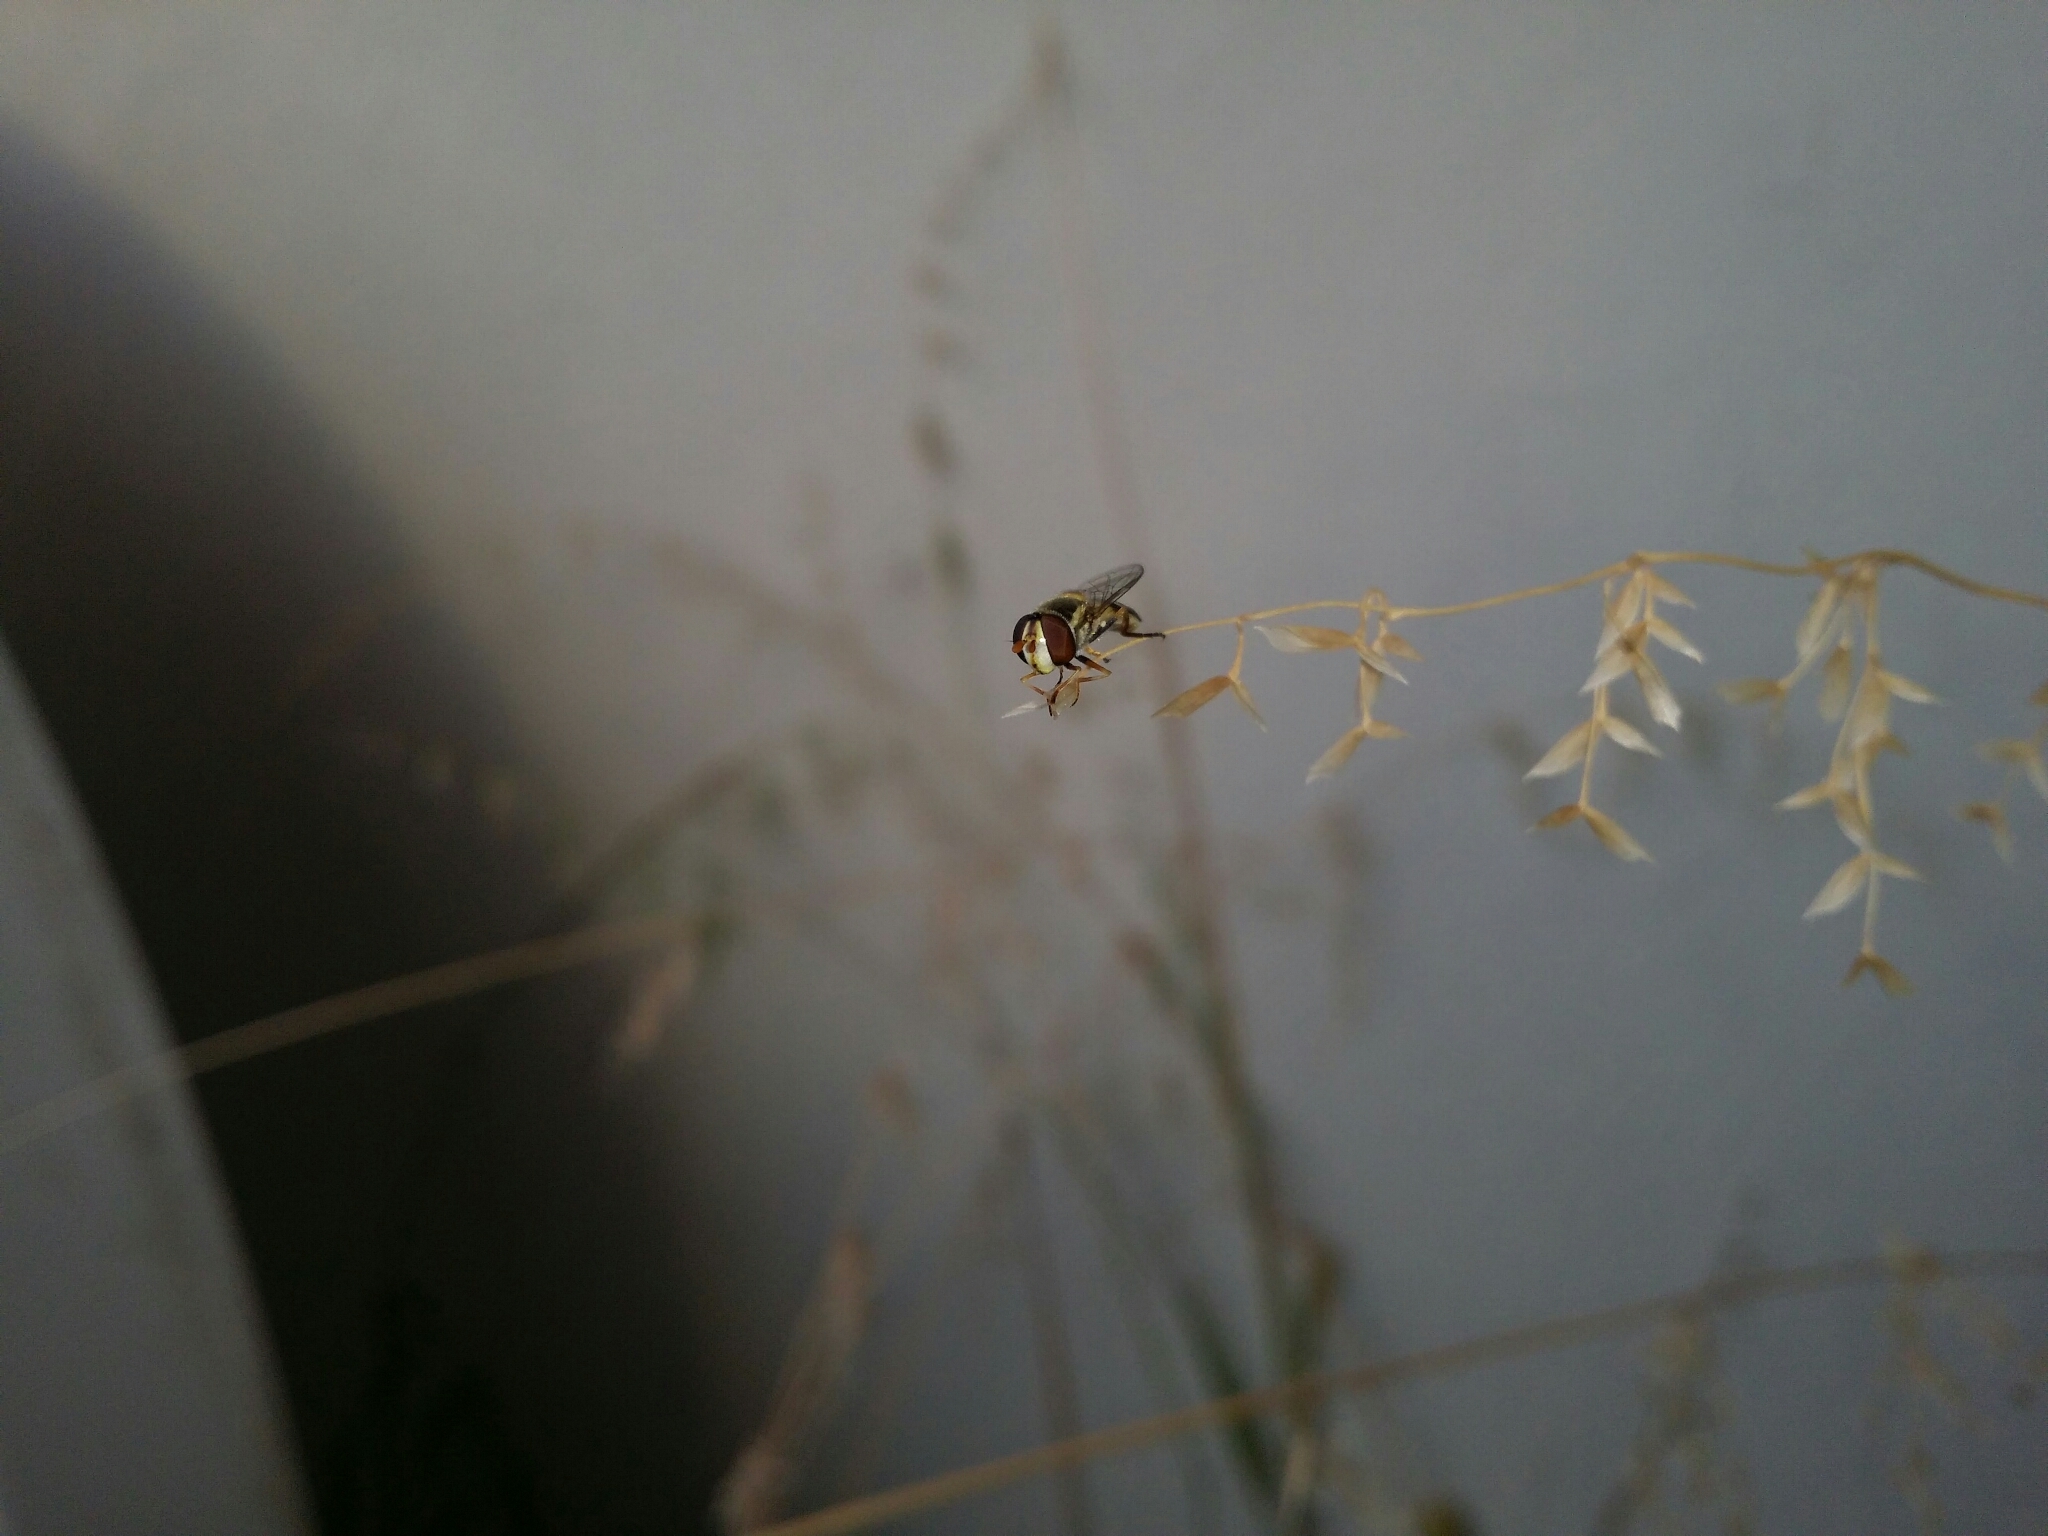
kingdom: Animalia
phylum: Arthropoda
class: Insecta
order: Diptera
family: Syrphidae
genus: Simosyrphus
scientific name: Simosyrphus grandicornis
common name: Hoverfly
